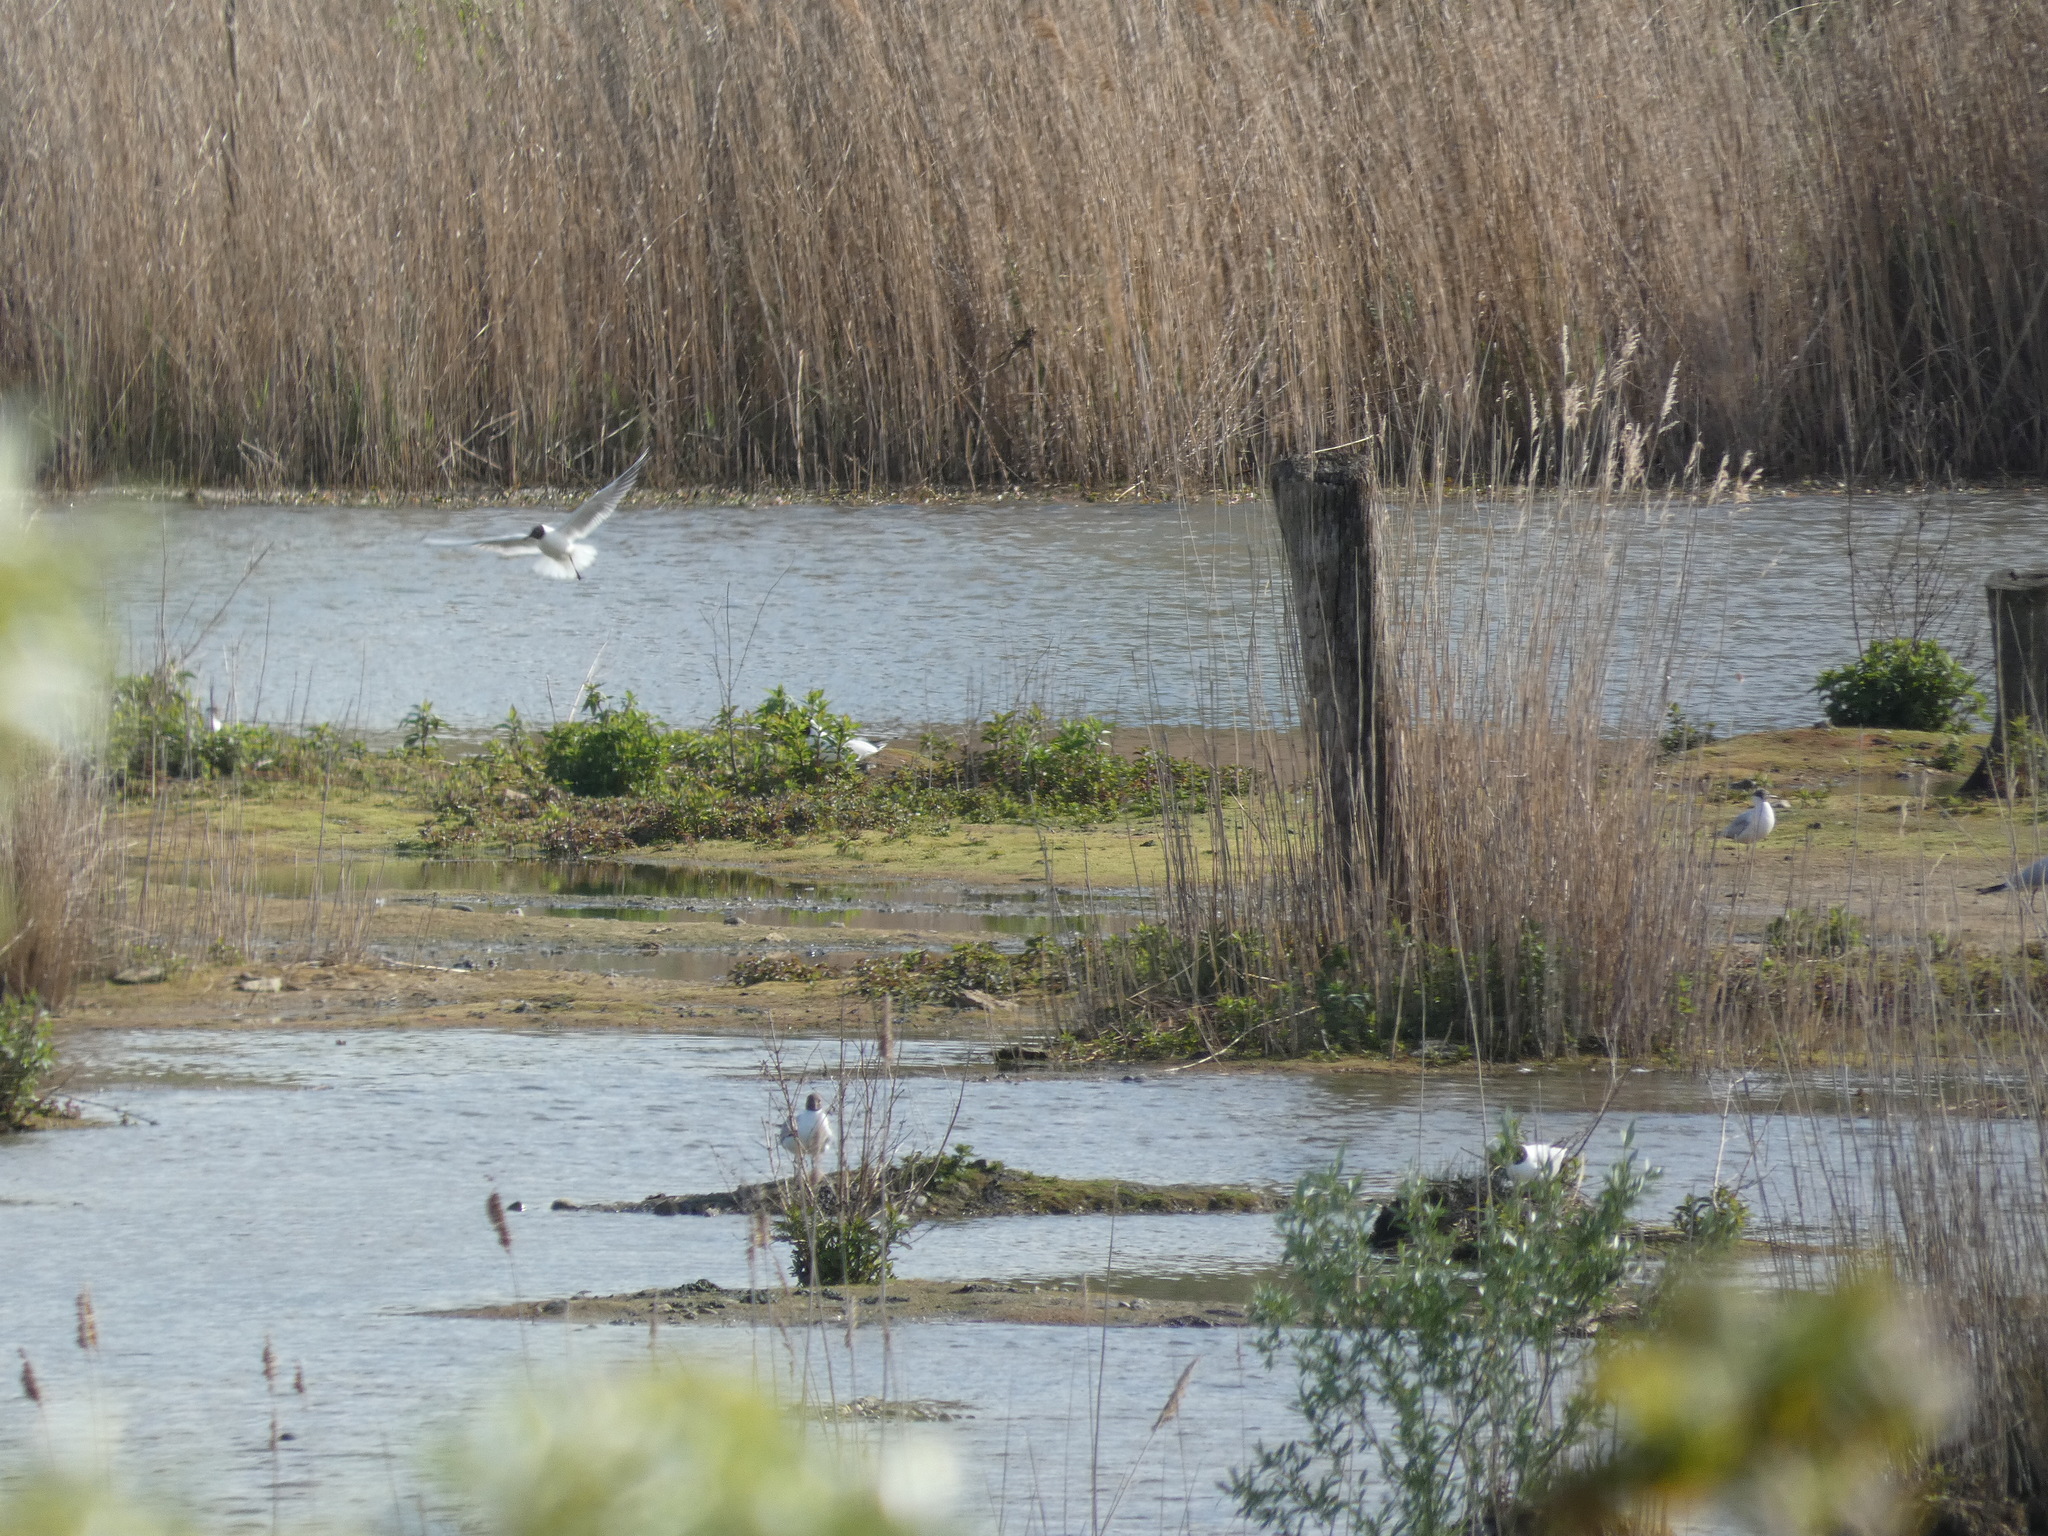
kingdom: Animalia
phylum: Chordata
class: Aves
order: Charadriiformes
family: Laridae
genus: Chroicocephalus
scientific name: Chroicocephalus ridibundus
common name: Black-headed gull
